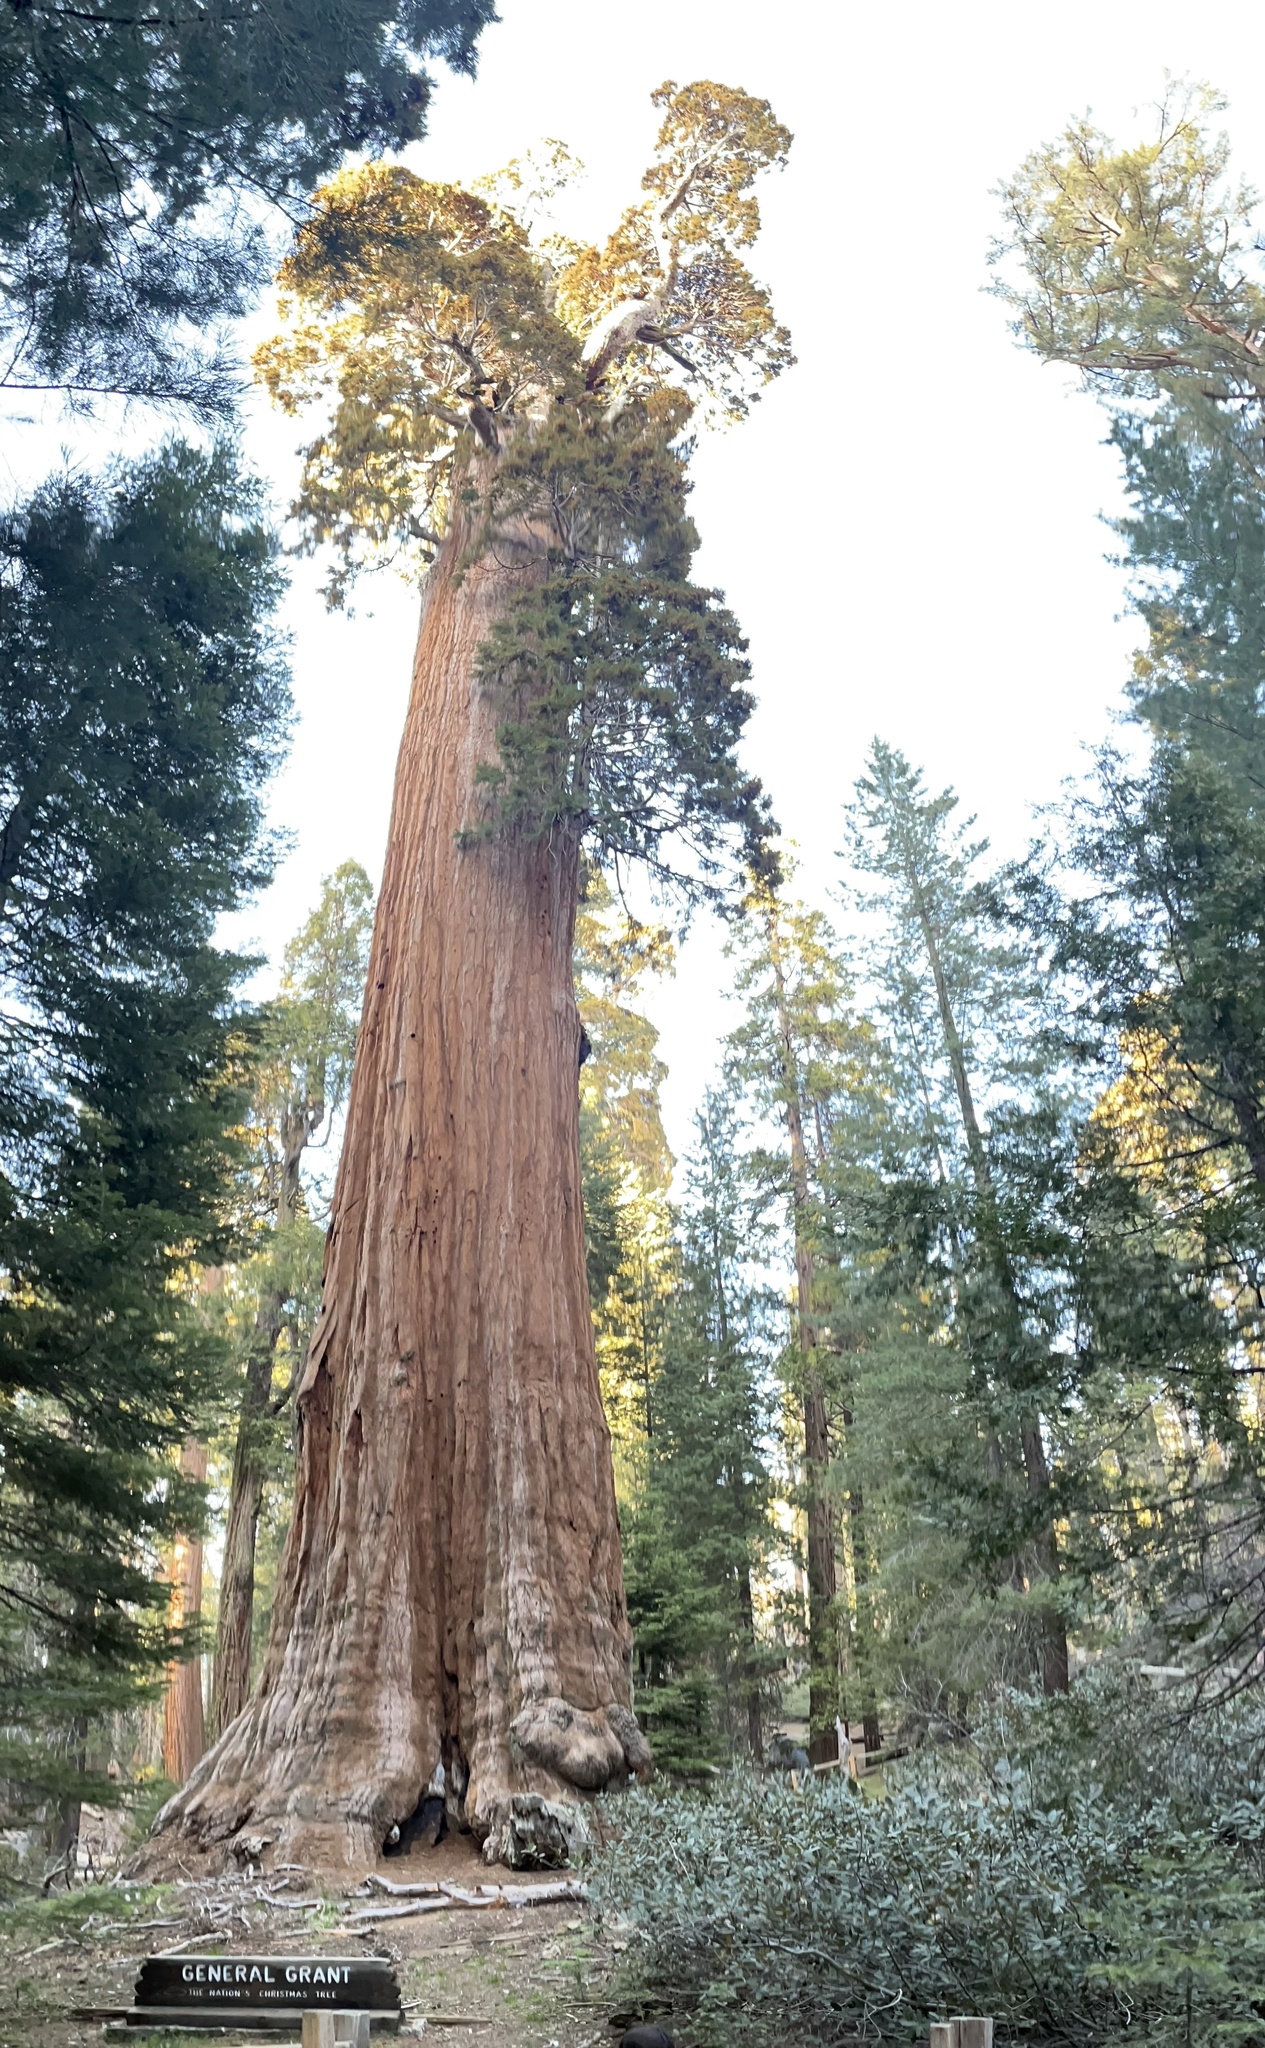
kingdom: Plantae
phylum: Tracheophyta
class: Pinopsida
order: Pinales
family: Cupressaceae
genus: Sequoiadendron
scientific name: Sequoiadendron giganteum
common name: Wellingtonia
